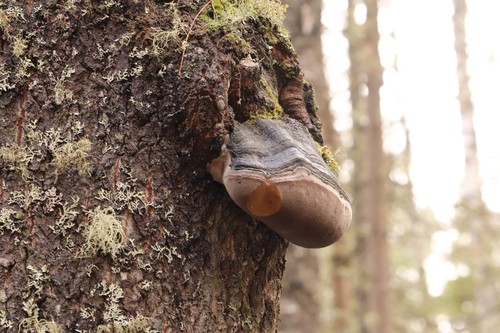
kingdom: Fungi
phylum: Basidiomycota
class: Agaricomycetes
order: Hymenochaetales
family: Hymenochaetaceae
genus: Phellinus
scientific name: Phellinus igniarius
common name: Willow bracket
